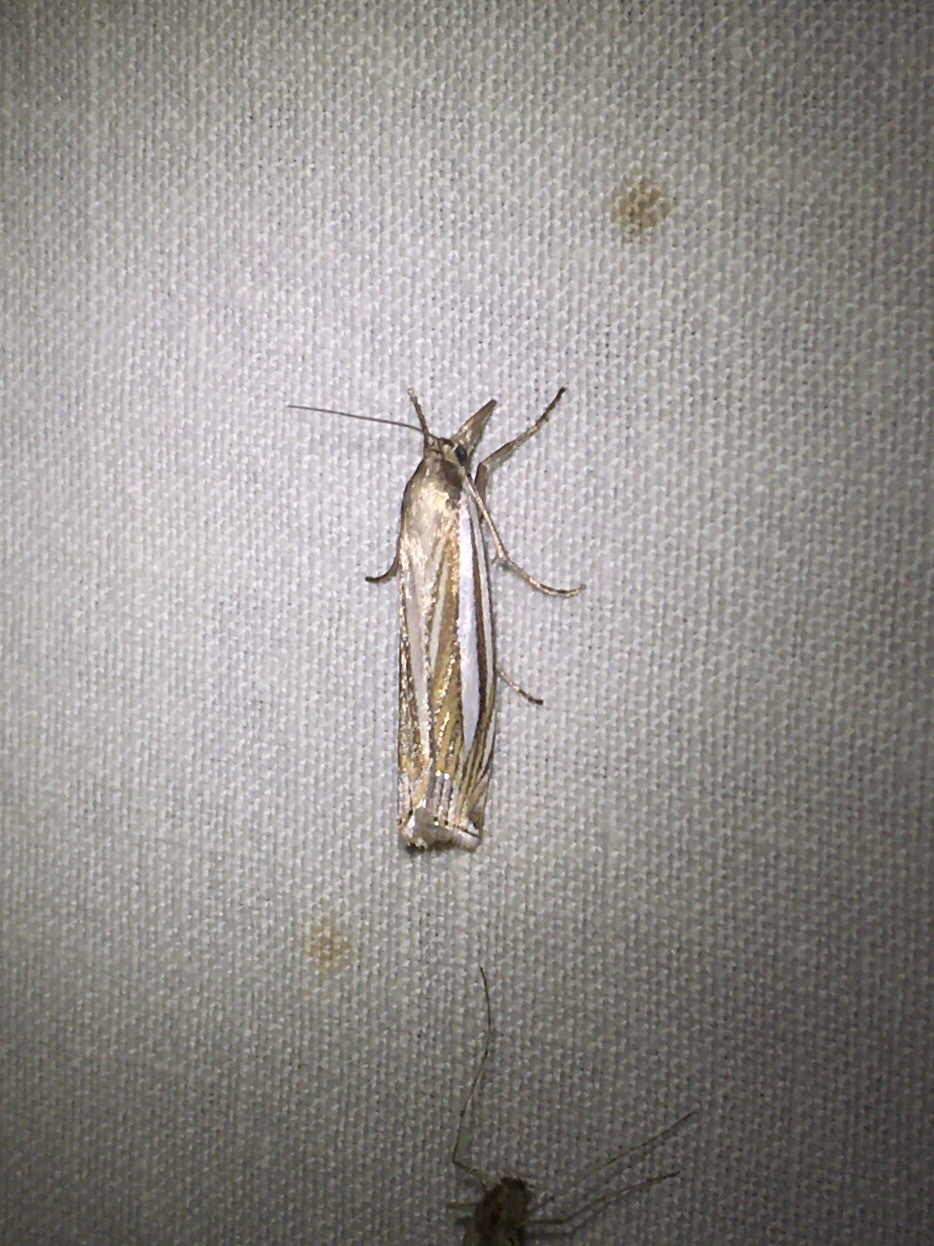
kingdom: Animalia
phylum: Arthropoda
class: Insecta
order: Lepidoptera
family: Crambidae
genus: Crambus
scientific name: Crambus laqueatellus
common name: Eastern grass-veneer
